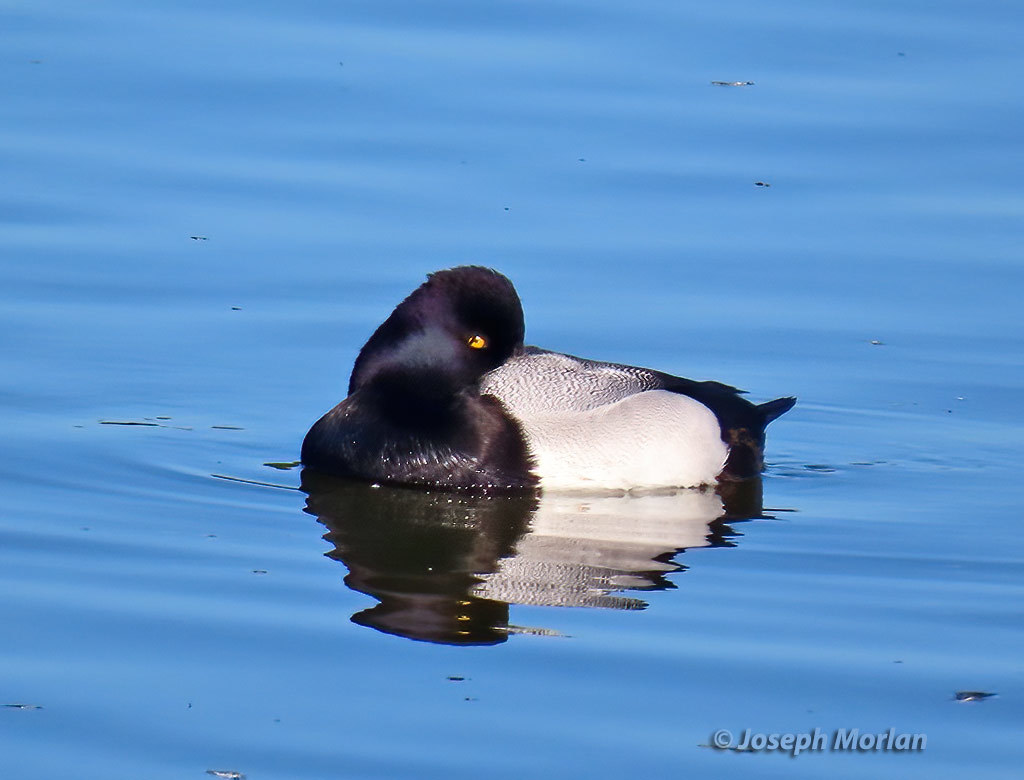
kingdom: Animalia
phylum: Chordata
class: Aves
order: Anseriformes
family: Anatidae
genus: Aythya
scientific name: Aythya affinis
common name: Lesser scaup
